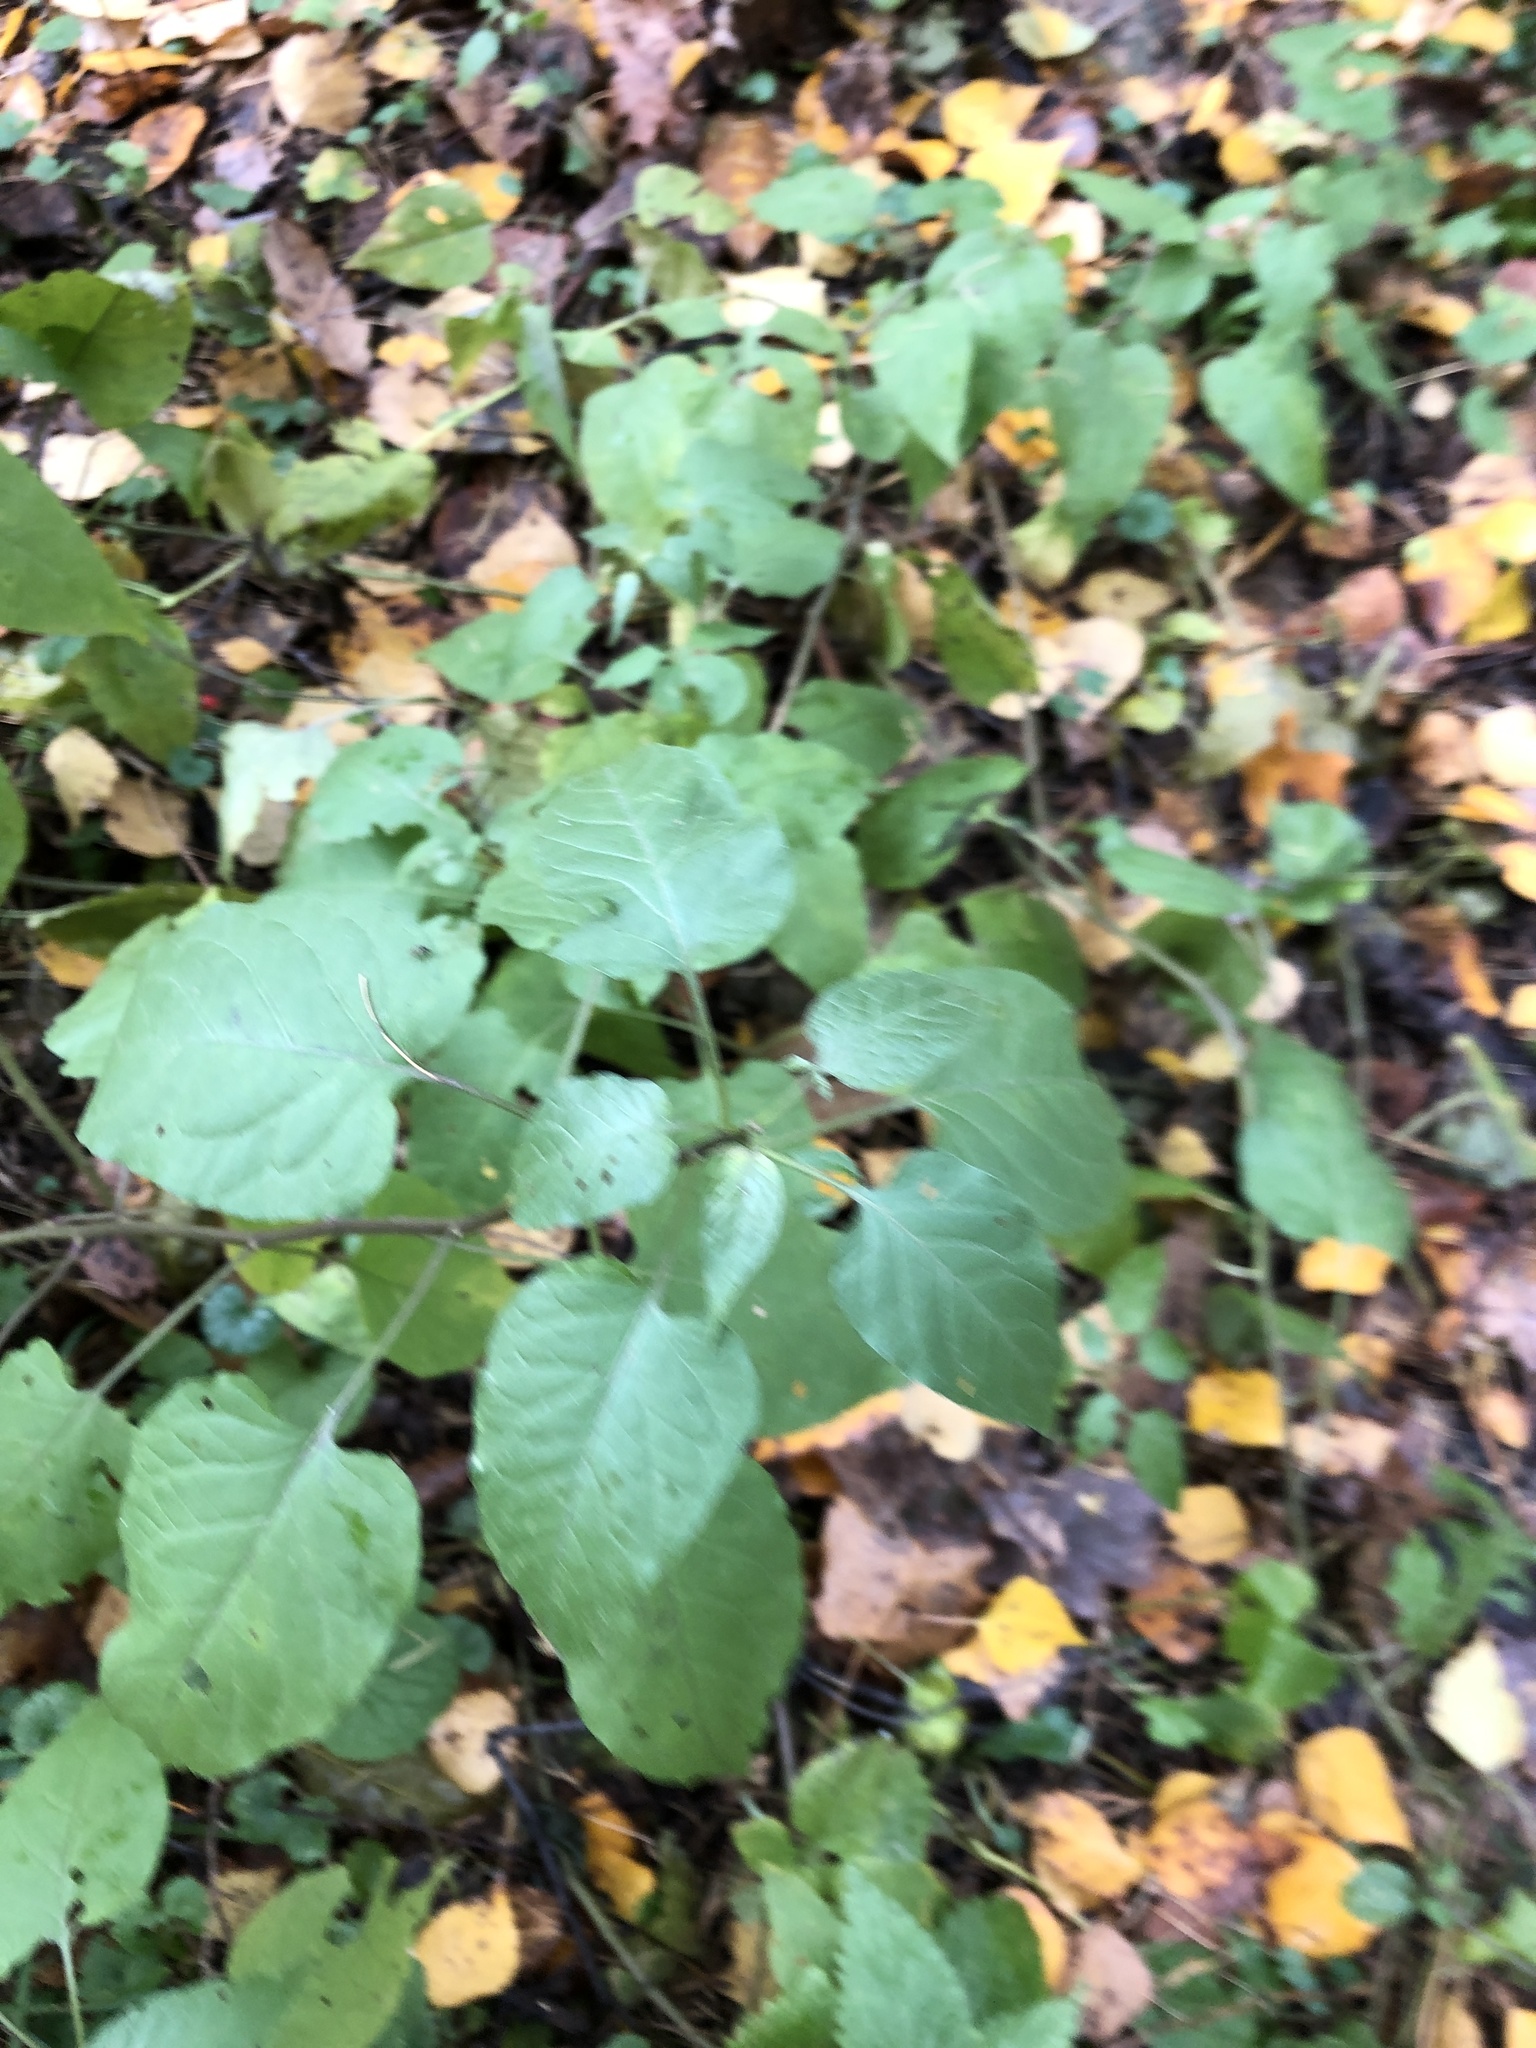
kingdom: Plantae
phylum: Tracheophyta
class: Magnoliopsida
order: Solanales
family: Solanaceae
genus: Solanum
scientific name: Solanum dulcamara
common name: Climbing nightshade
